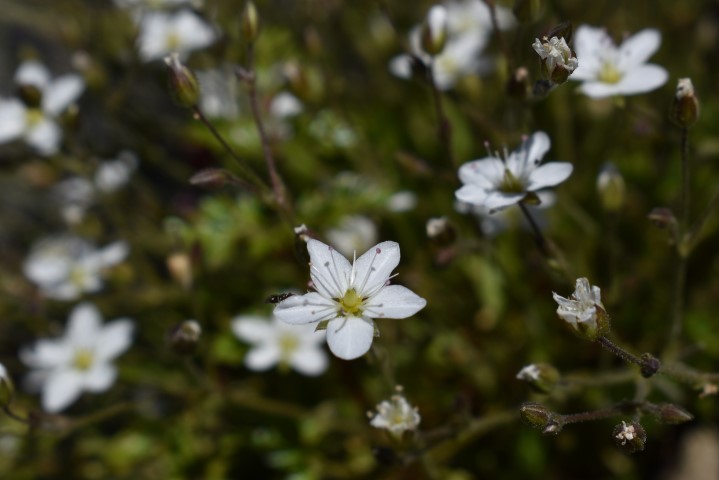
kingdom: Plantae
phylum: Tracheophyta
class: Magnoliopsida
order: Caryophyllales
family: Caryophyllaceae
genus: Sabulina
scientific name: Sabulina rubella
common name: Beautiful sandwort
